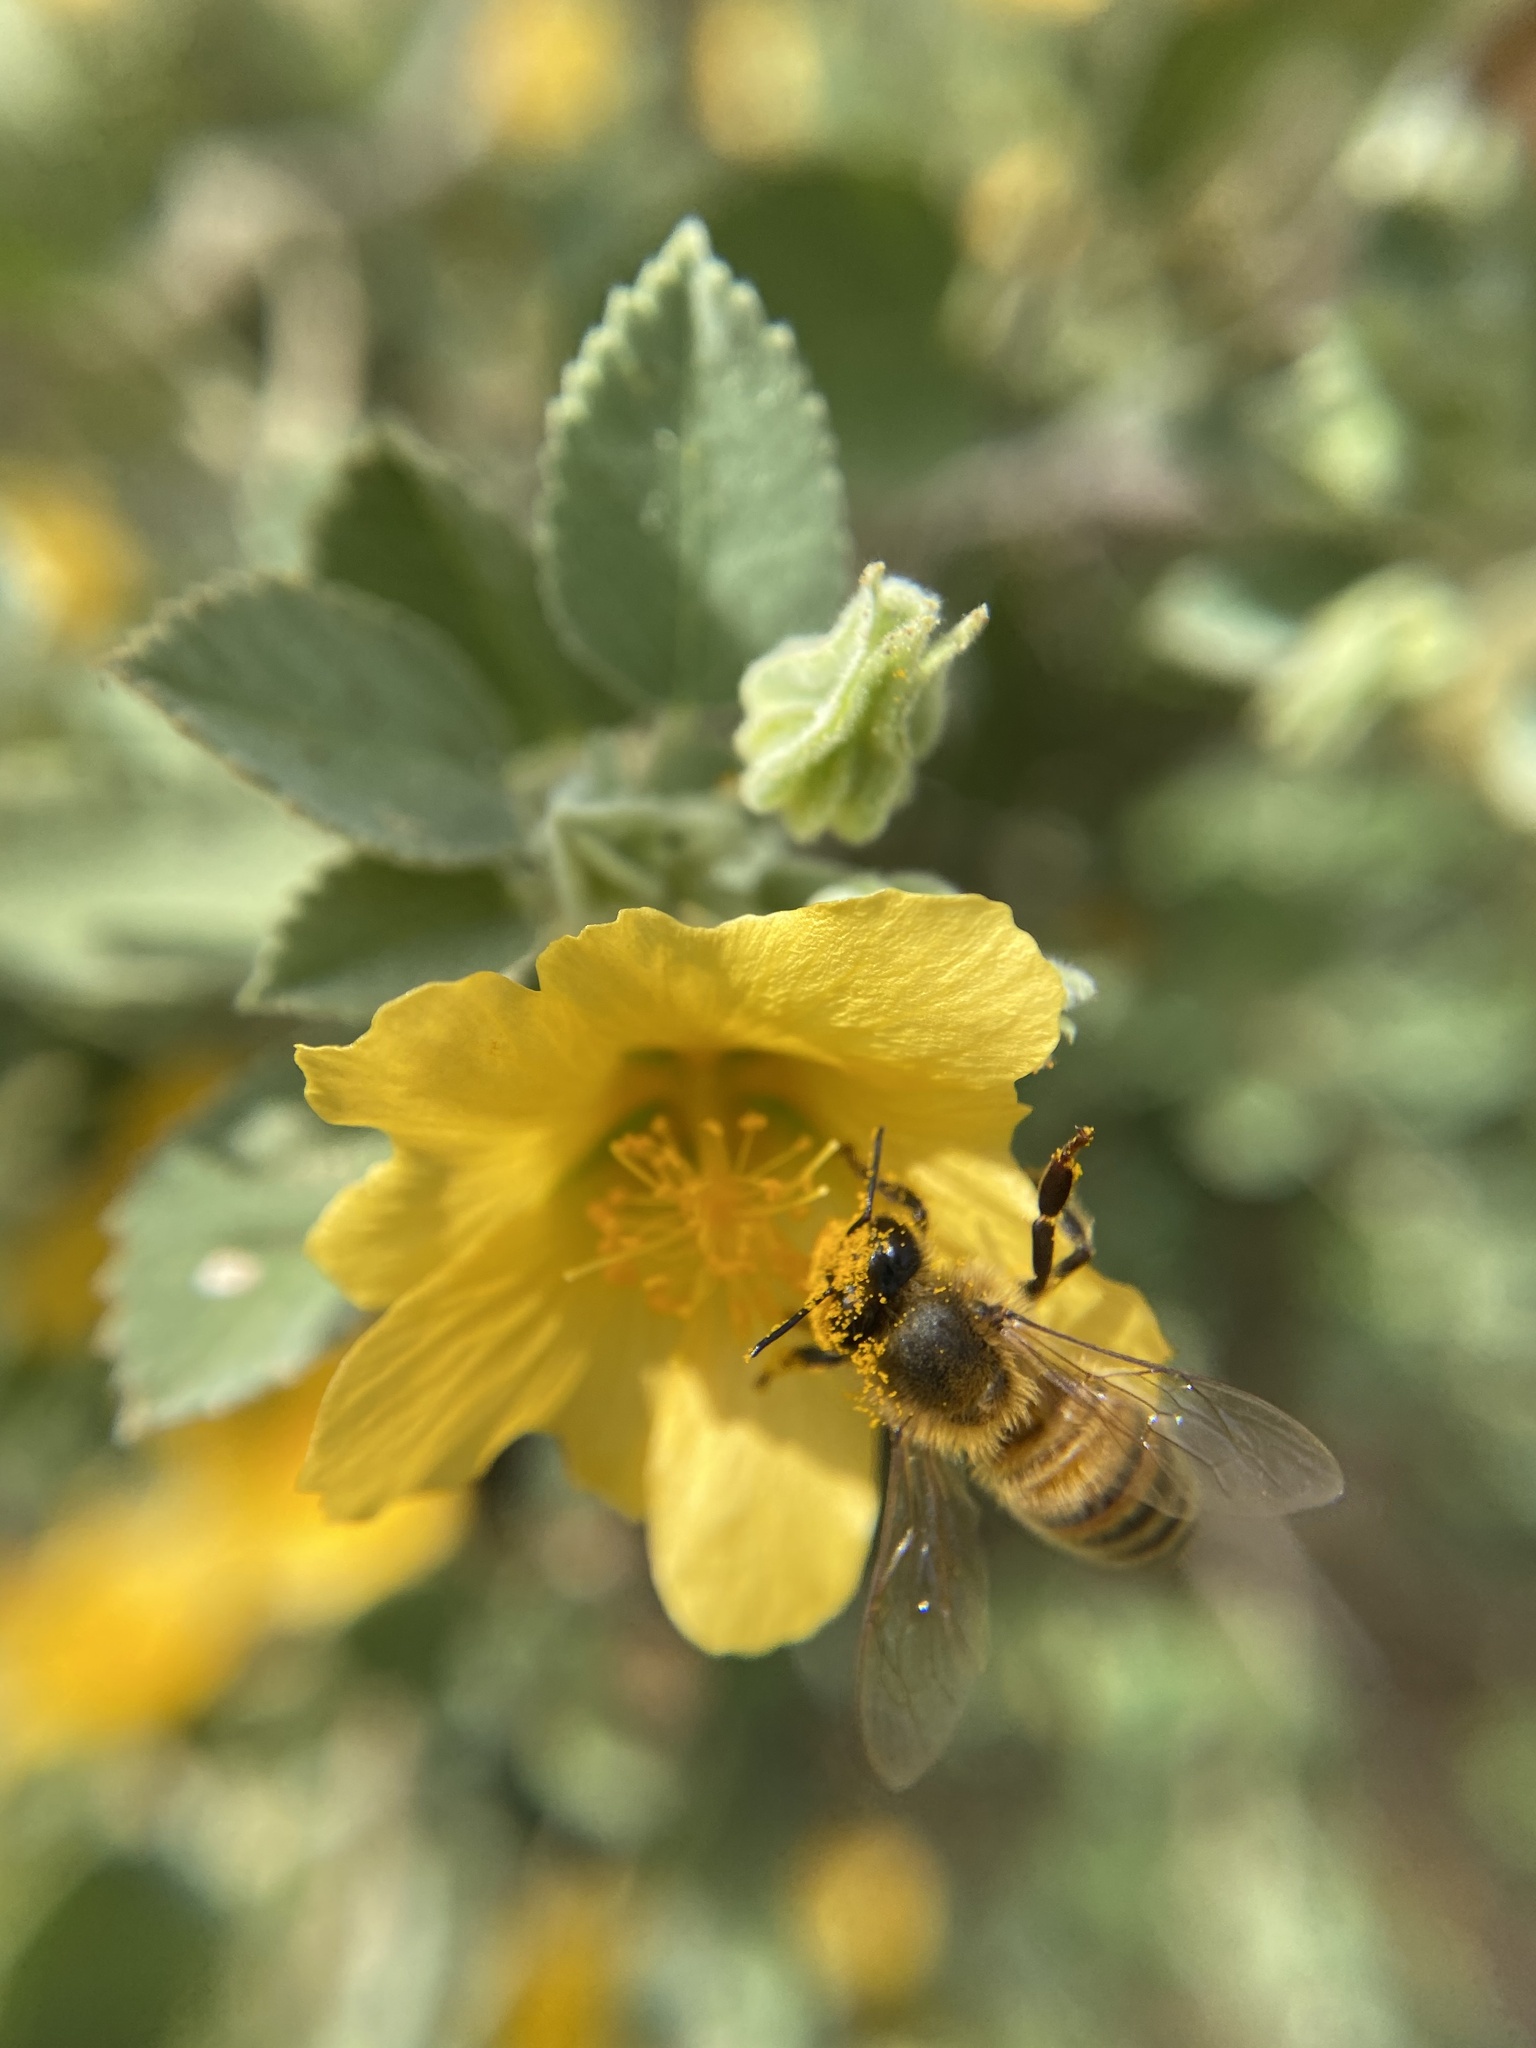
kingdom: Animalia
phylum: Arthropoda
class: Insecta
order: Hymenoptera
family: Apidae
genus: Apis
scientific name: Apis mellifera
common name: Honey bee
